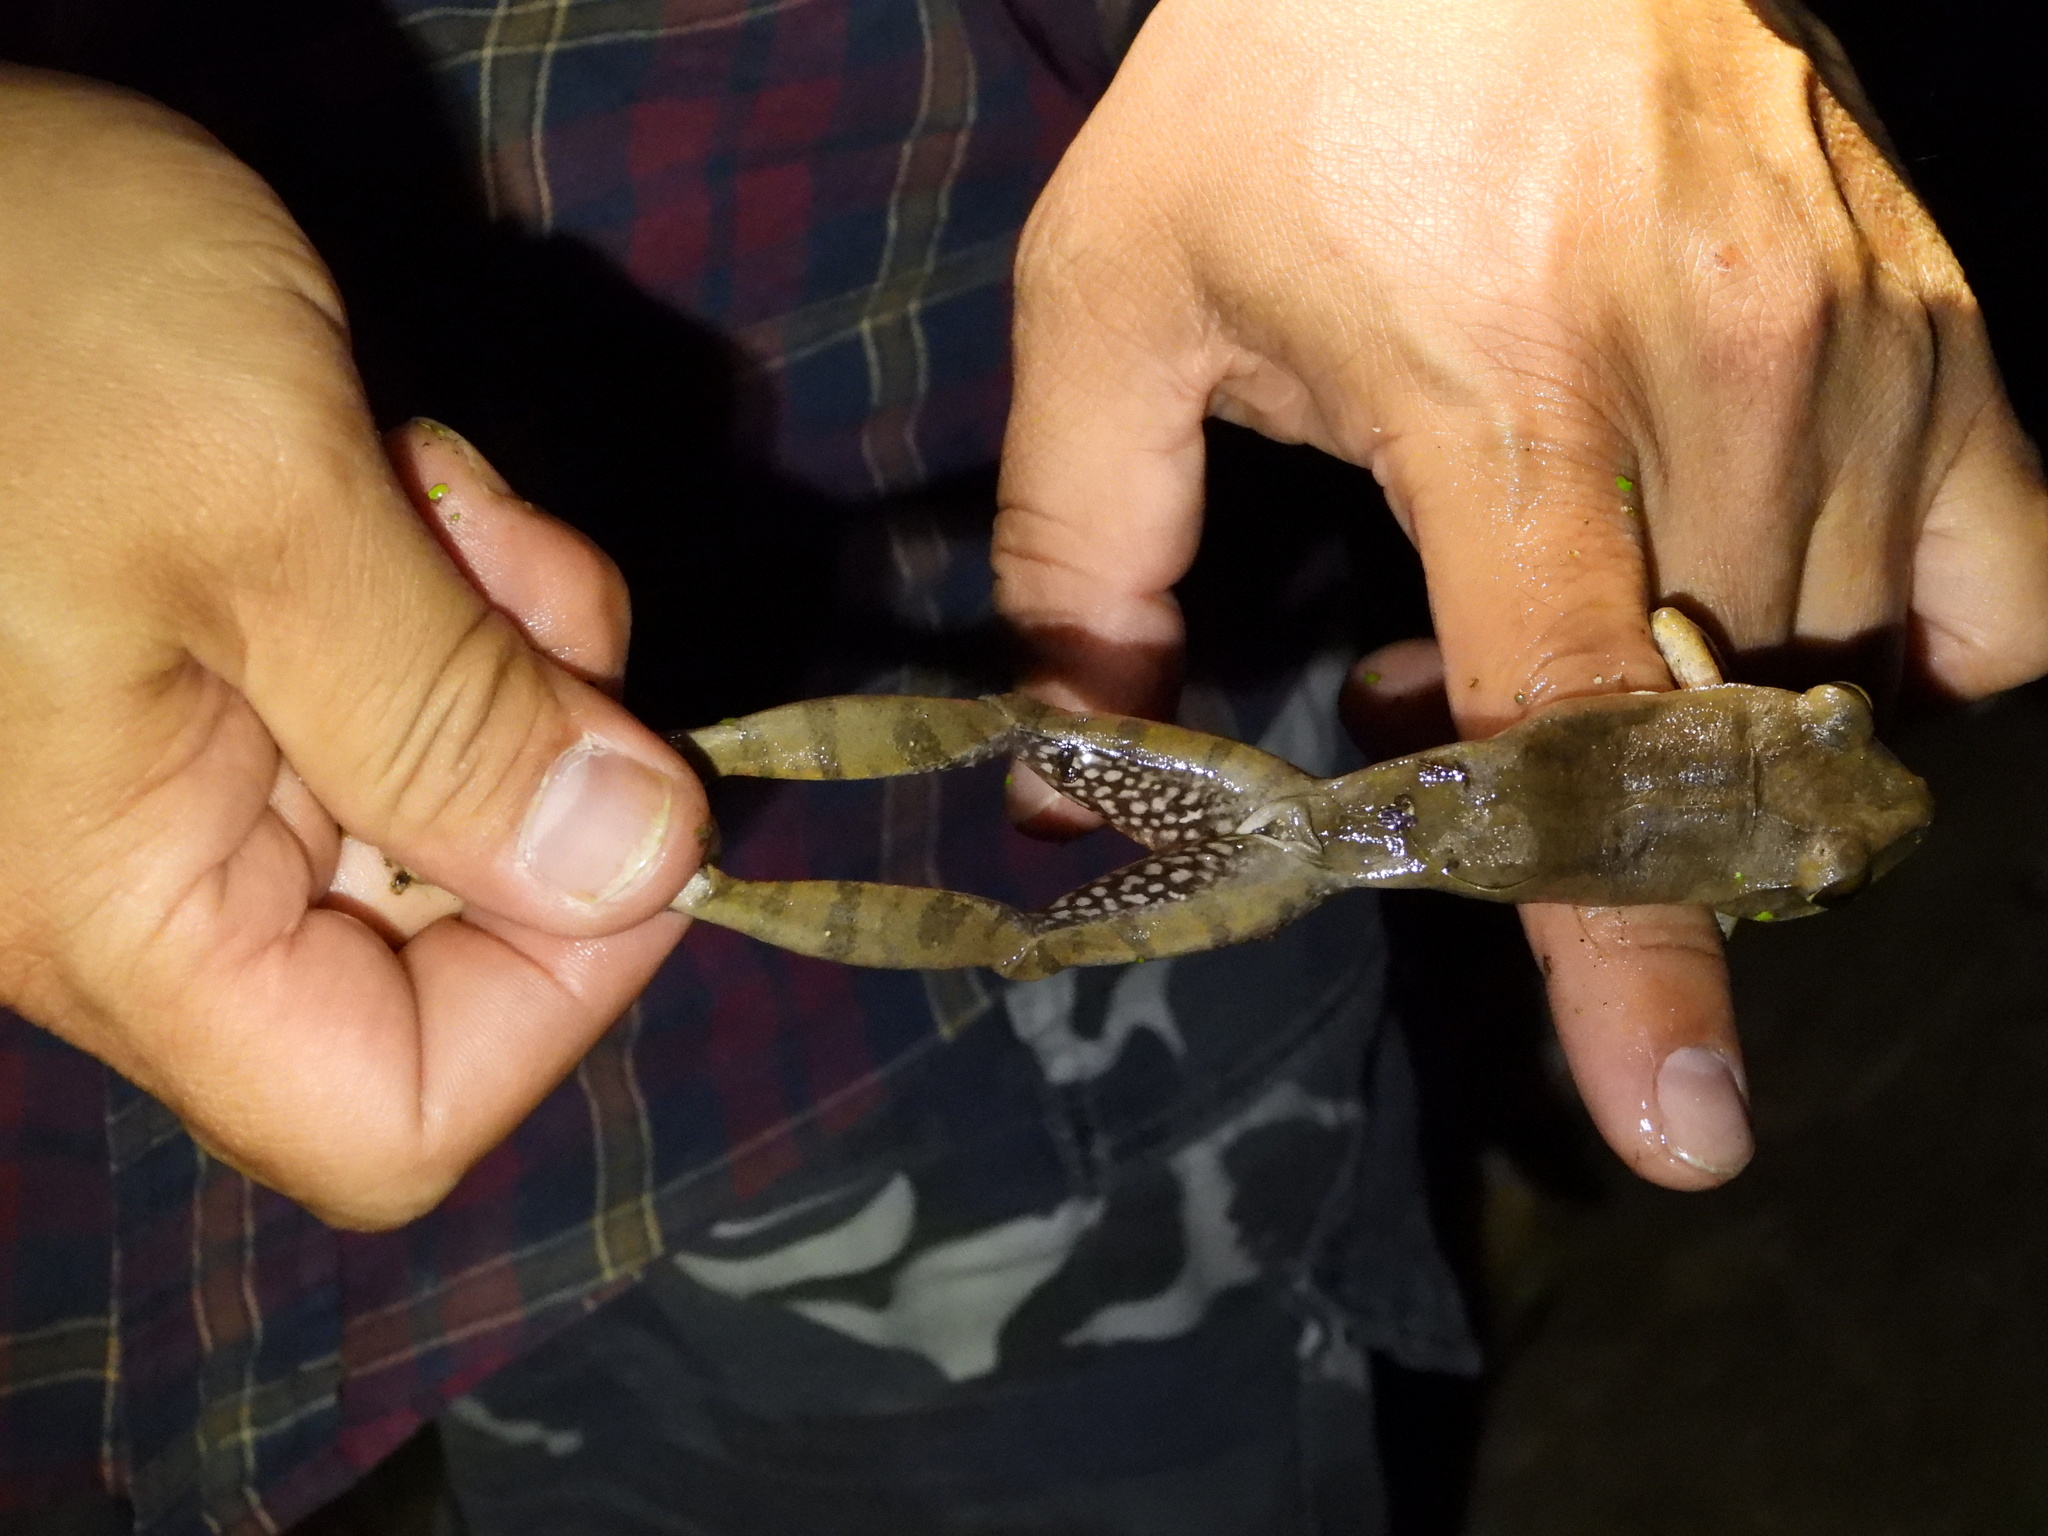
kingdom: Animalia
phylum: Chordata
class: Amphibia
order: Anura
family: Rhacophoridae
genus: Polypedates
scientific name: Polypedates megacephalus
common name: Hong kong whipping frog
